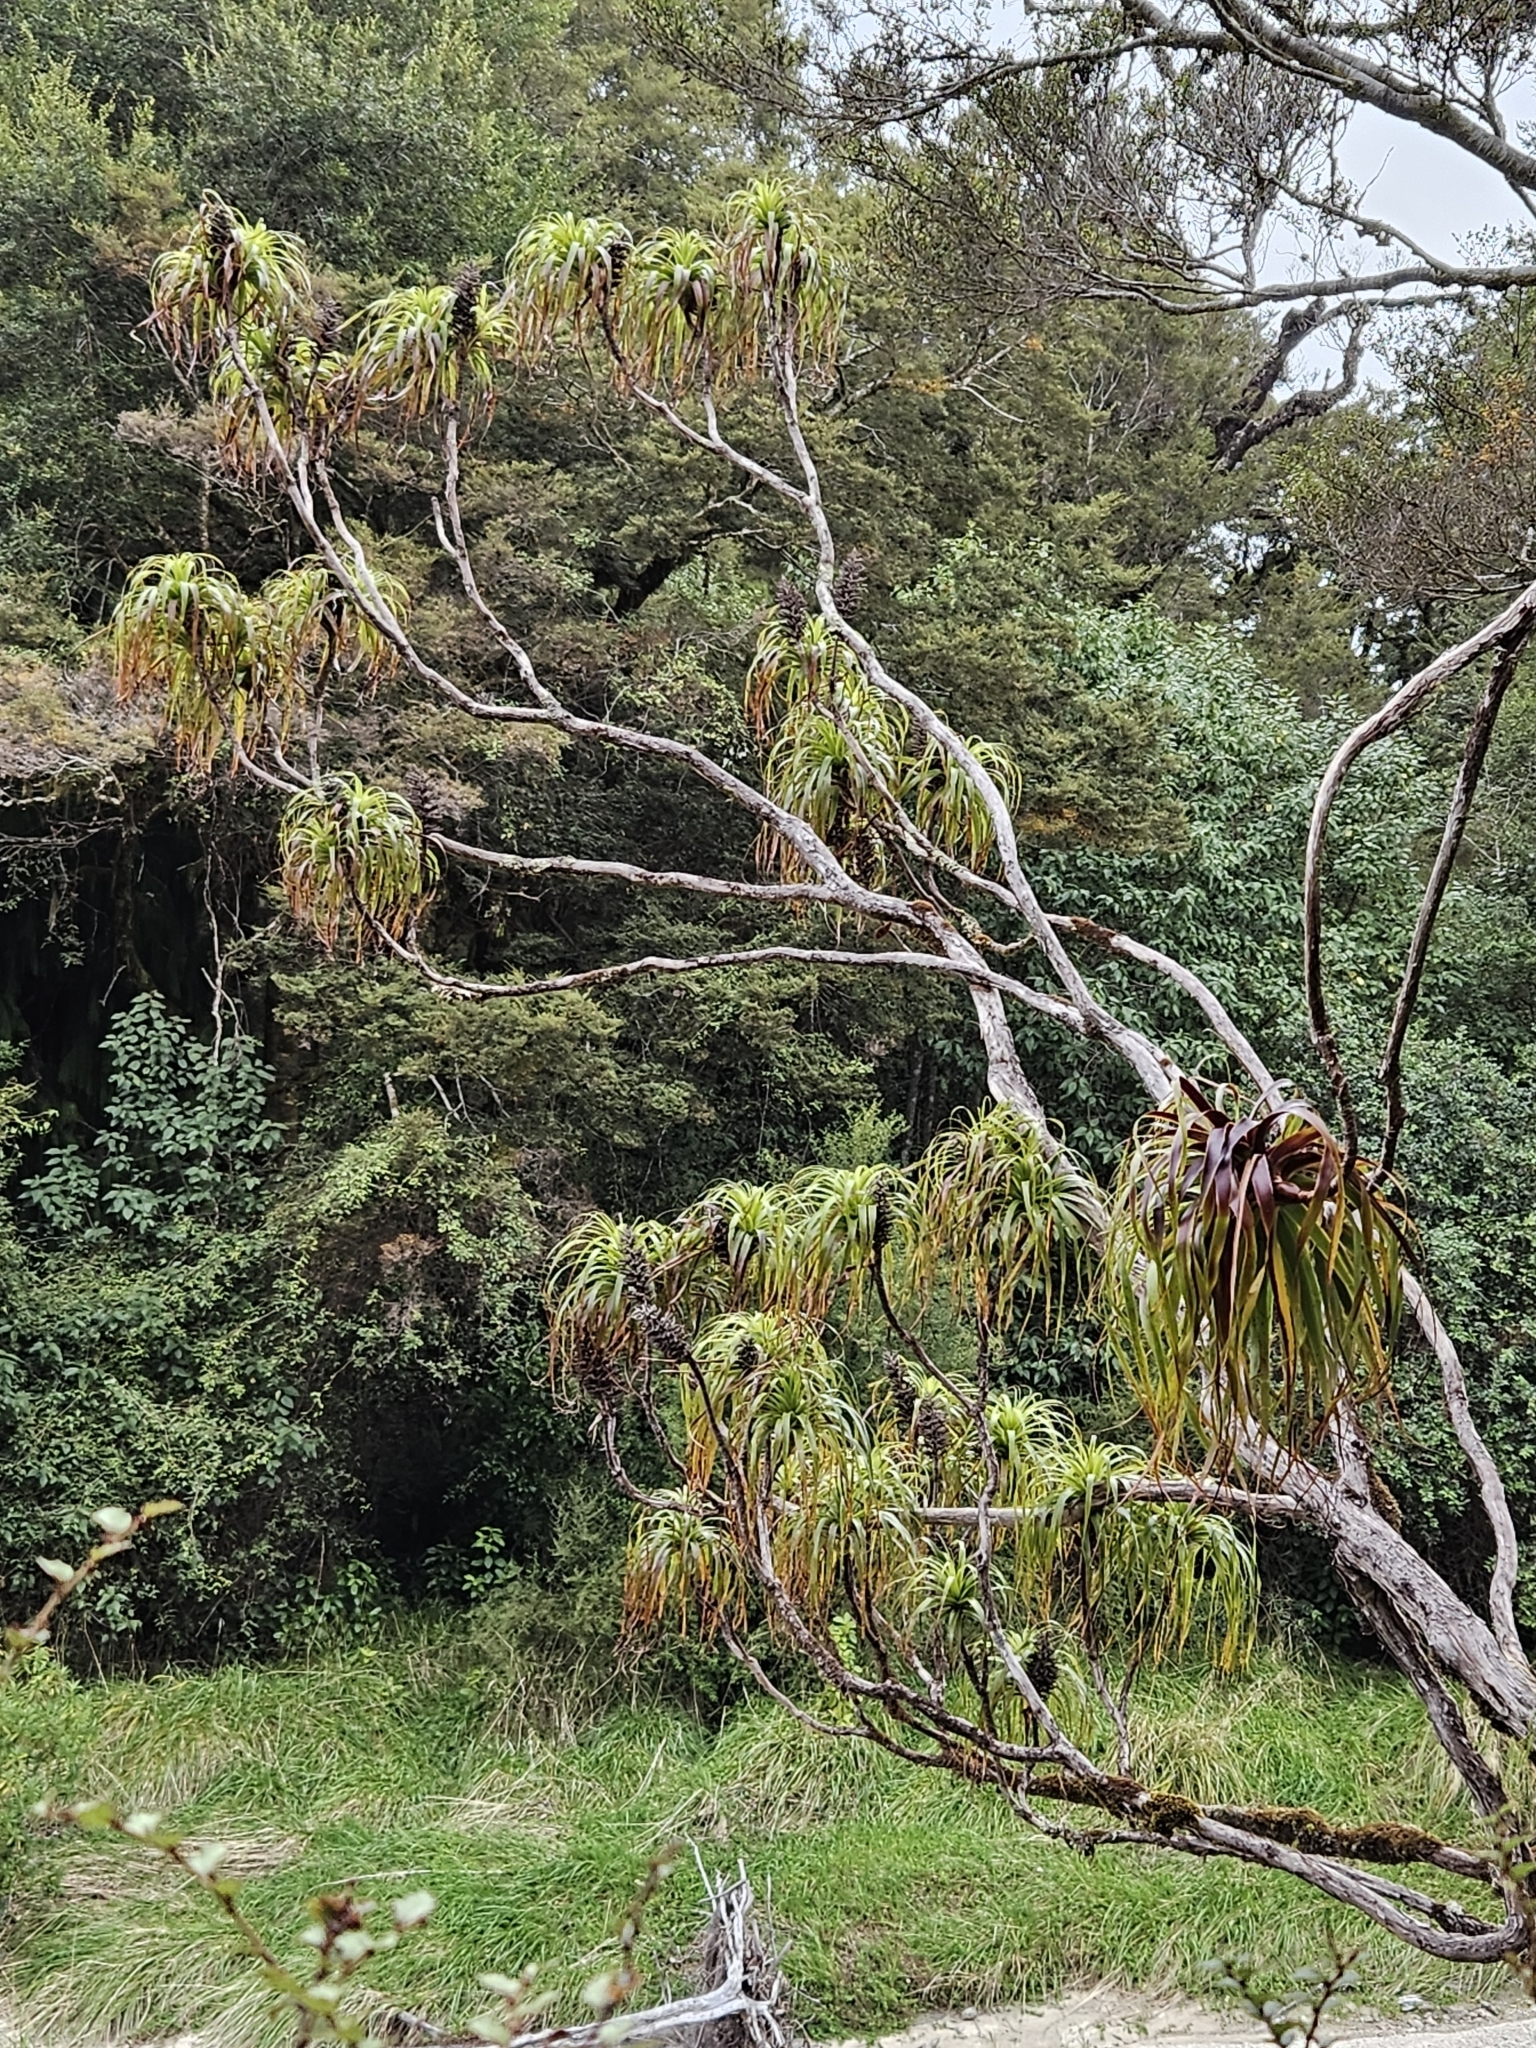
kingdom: Plantae
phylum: Tracheophyta
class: Magnoliopsida
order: Ericales
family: Ericaceae
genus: Dracophyllum
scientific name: Dracophyllum traversii
